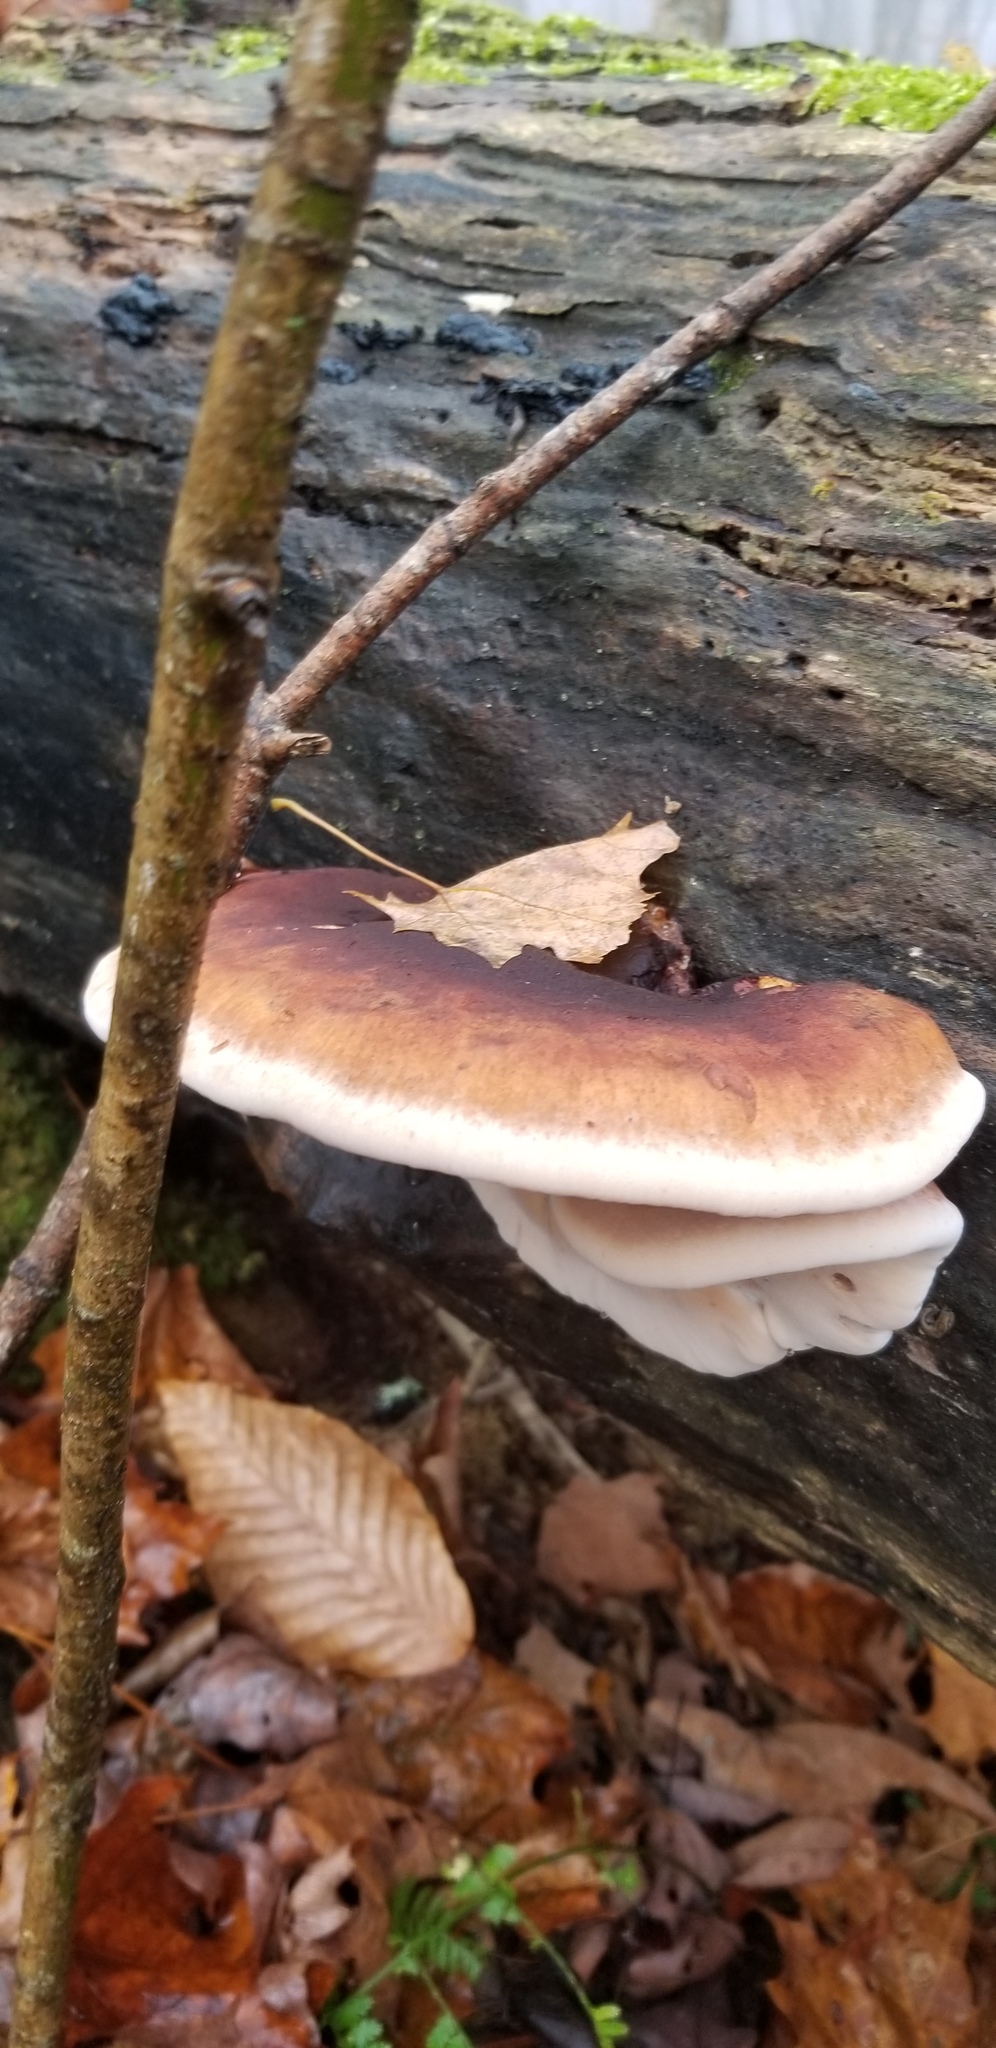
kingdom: Fungi
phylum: Basidiomycota
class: Agaricomycetes
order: Polyporales
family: Ischnodermataceae
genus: Ischnoderma
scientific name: Ischnoderma resinosum
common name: Resinous polypore
